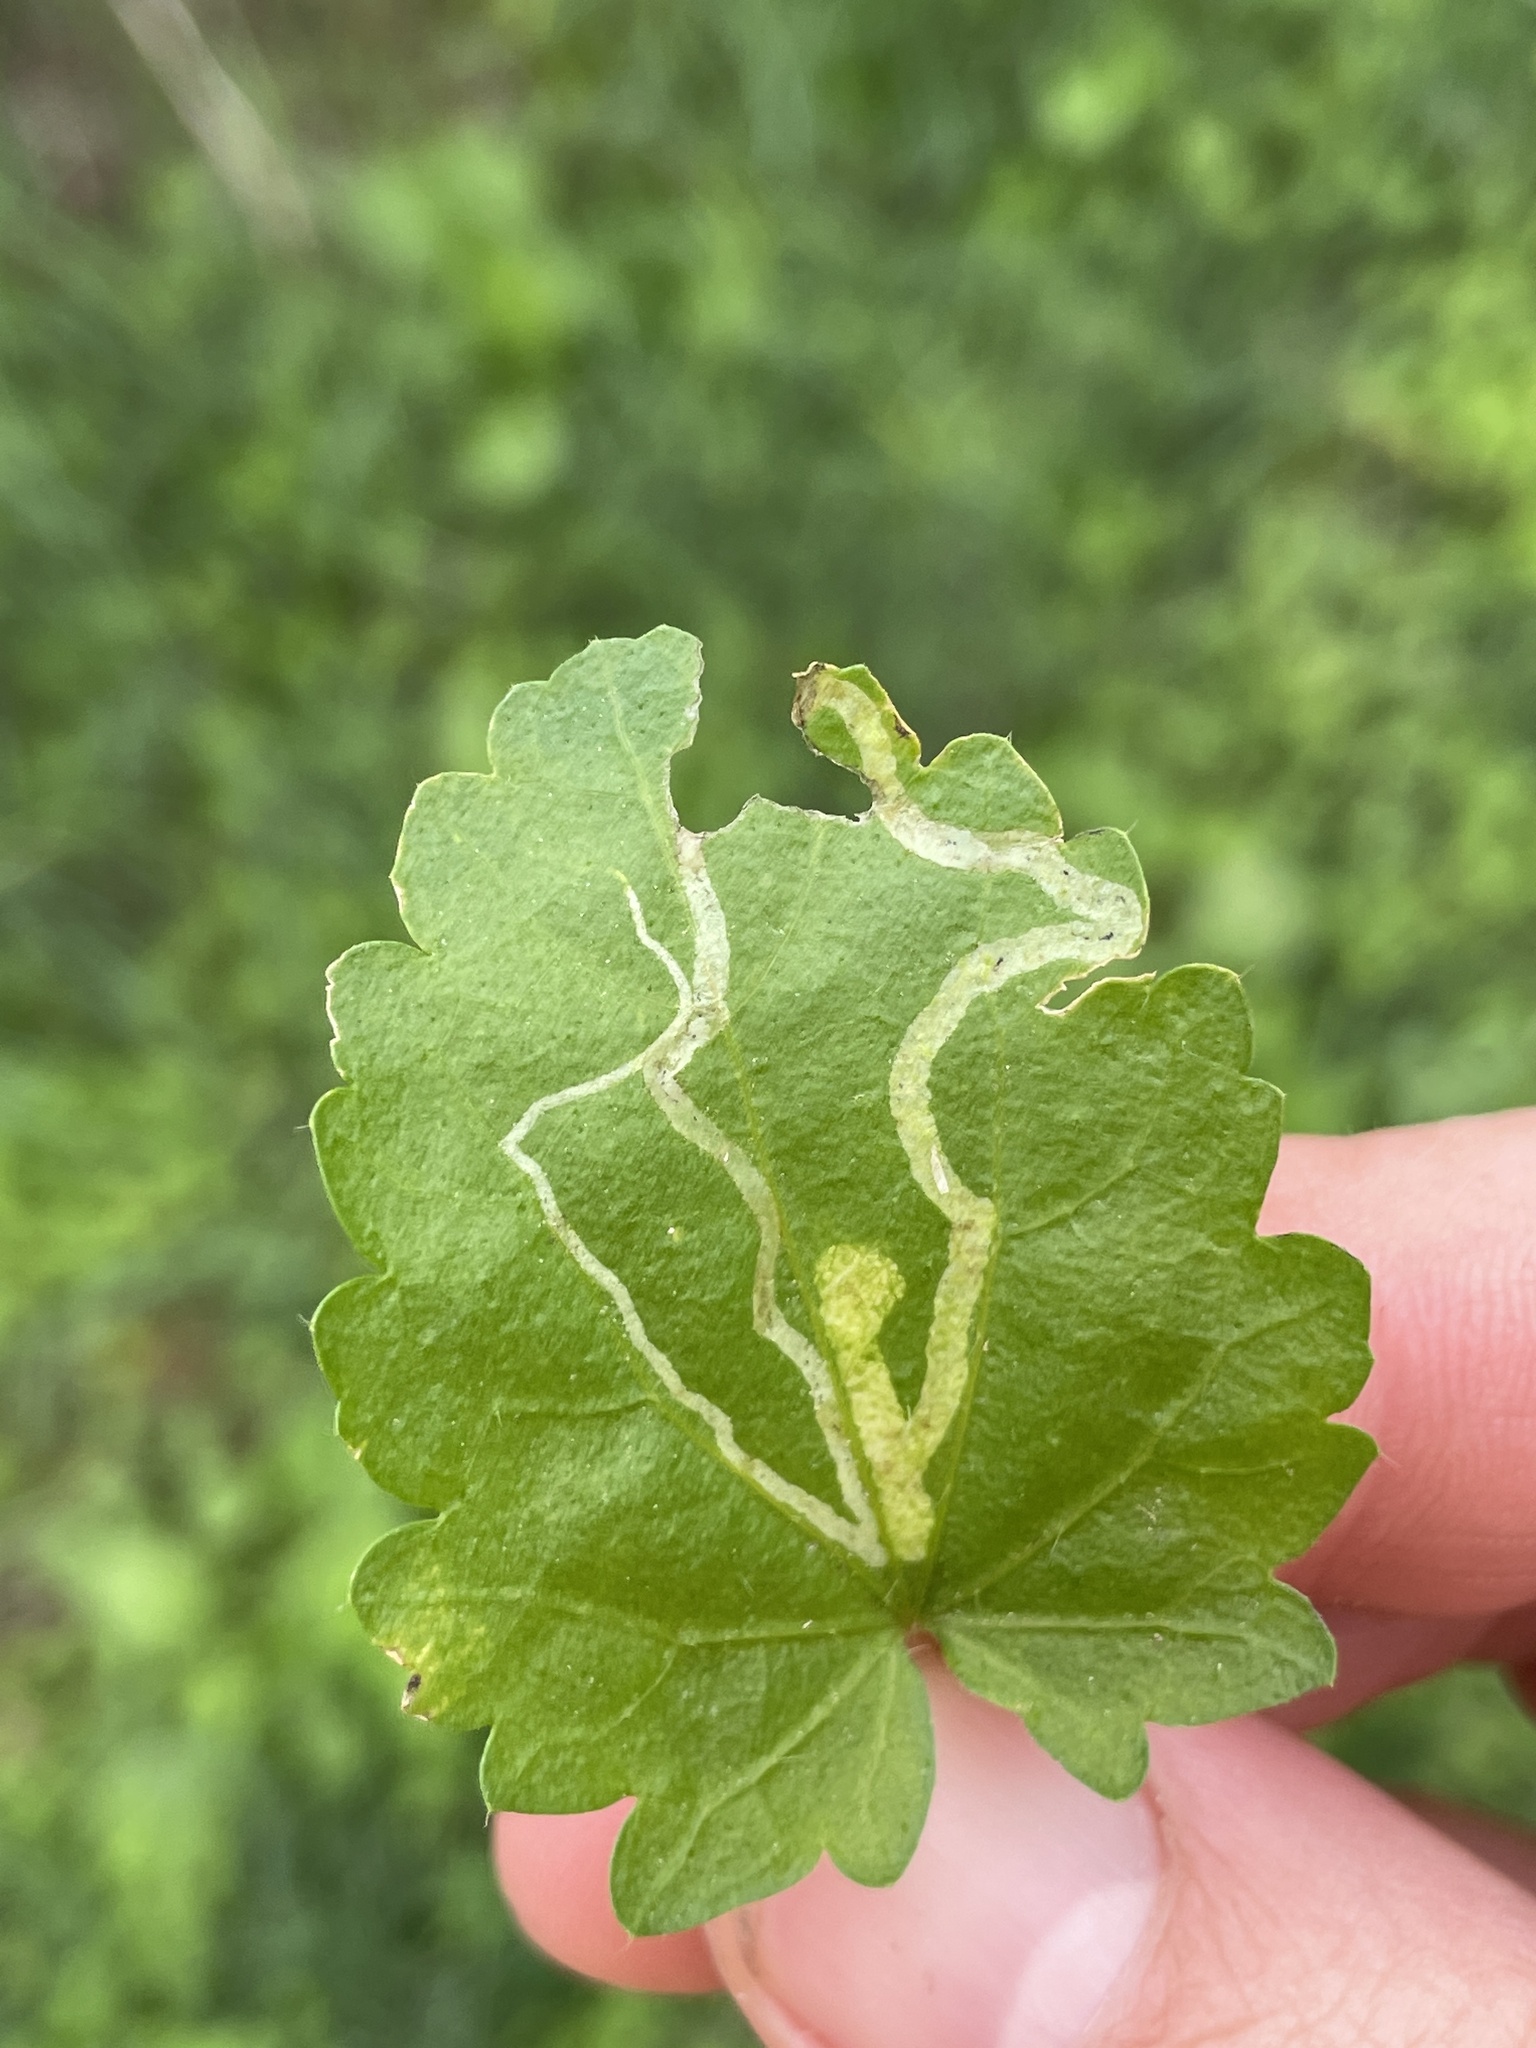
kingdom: Animalia
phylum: Arthropoda
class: Insecta
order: Diptera
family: Agromyzidae
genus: Calycomyza
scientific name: Calycomyza malvae
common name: Mallow leaf miner
